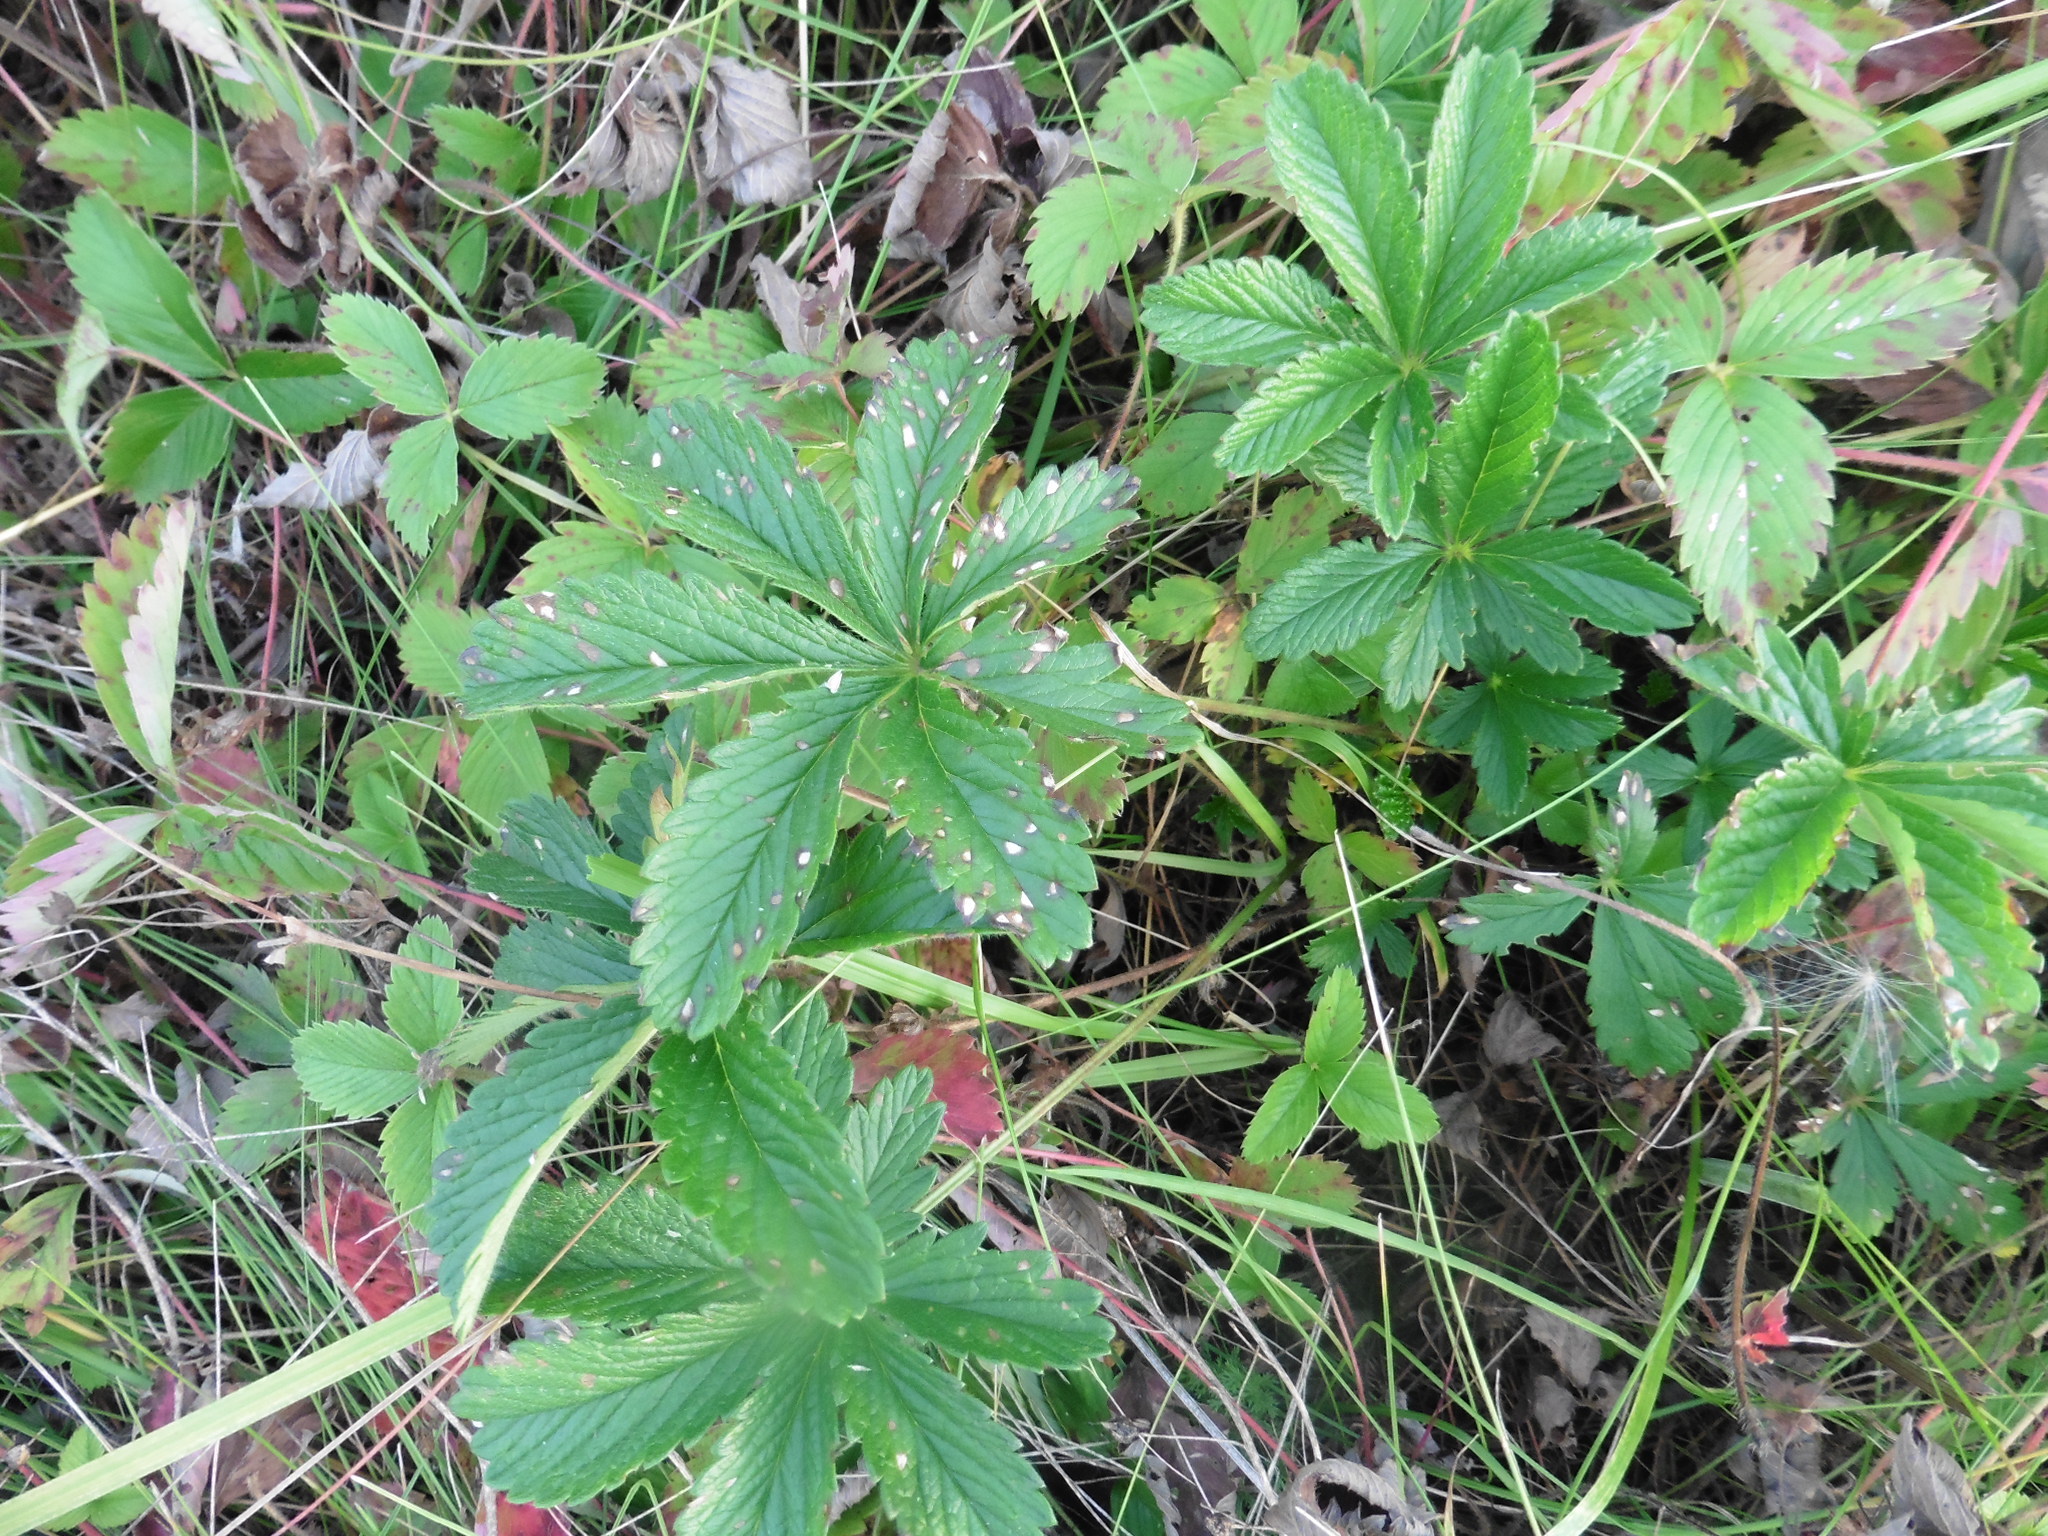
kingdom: Plantae
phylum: Tracheophyta
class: Magnoliopsida
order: Rosales
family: Rosaceae
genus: Potentilla
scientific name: Potentilla thuringiaca
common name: European cinquefoil
